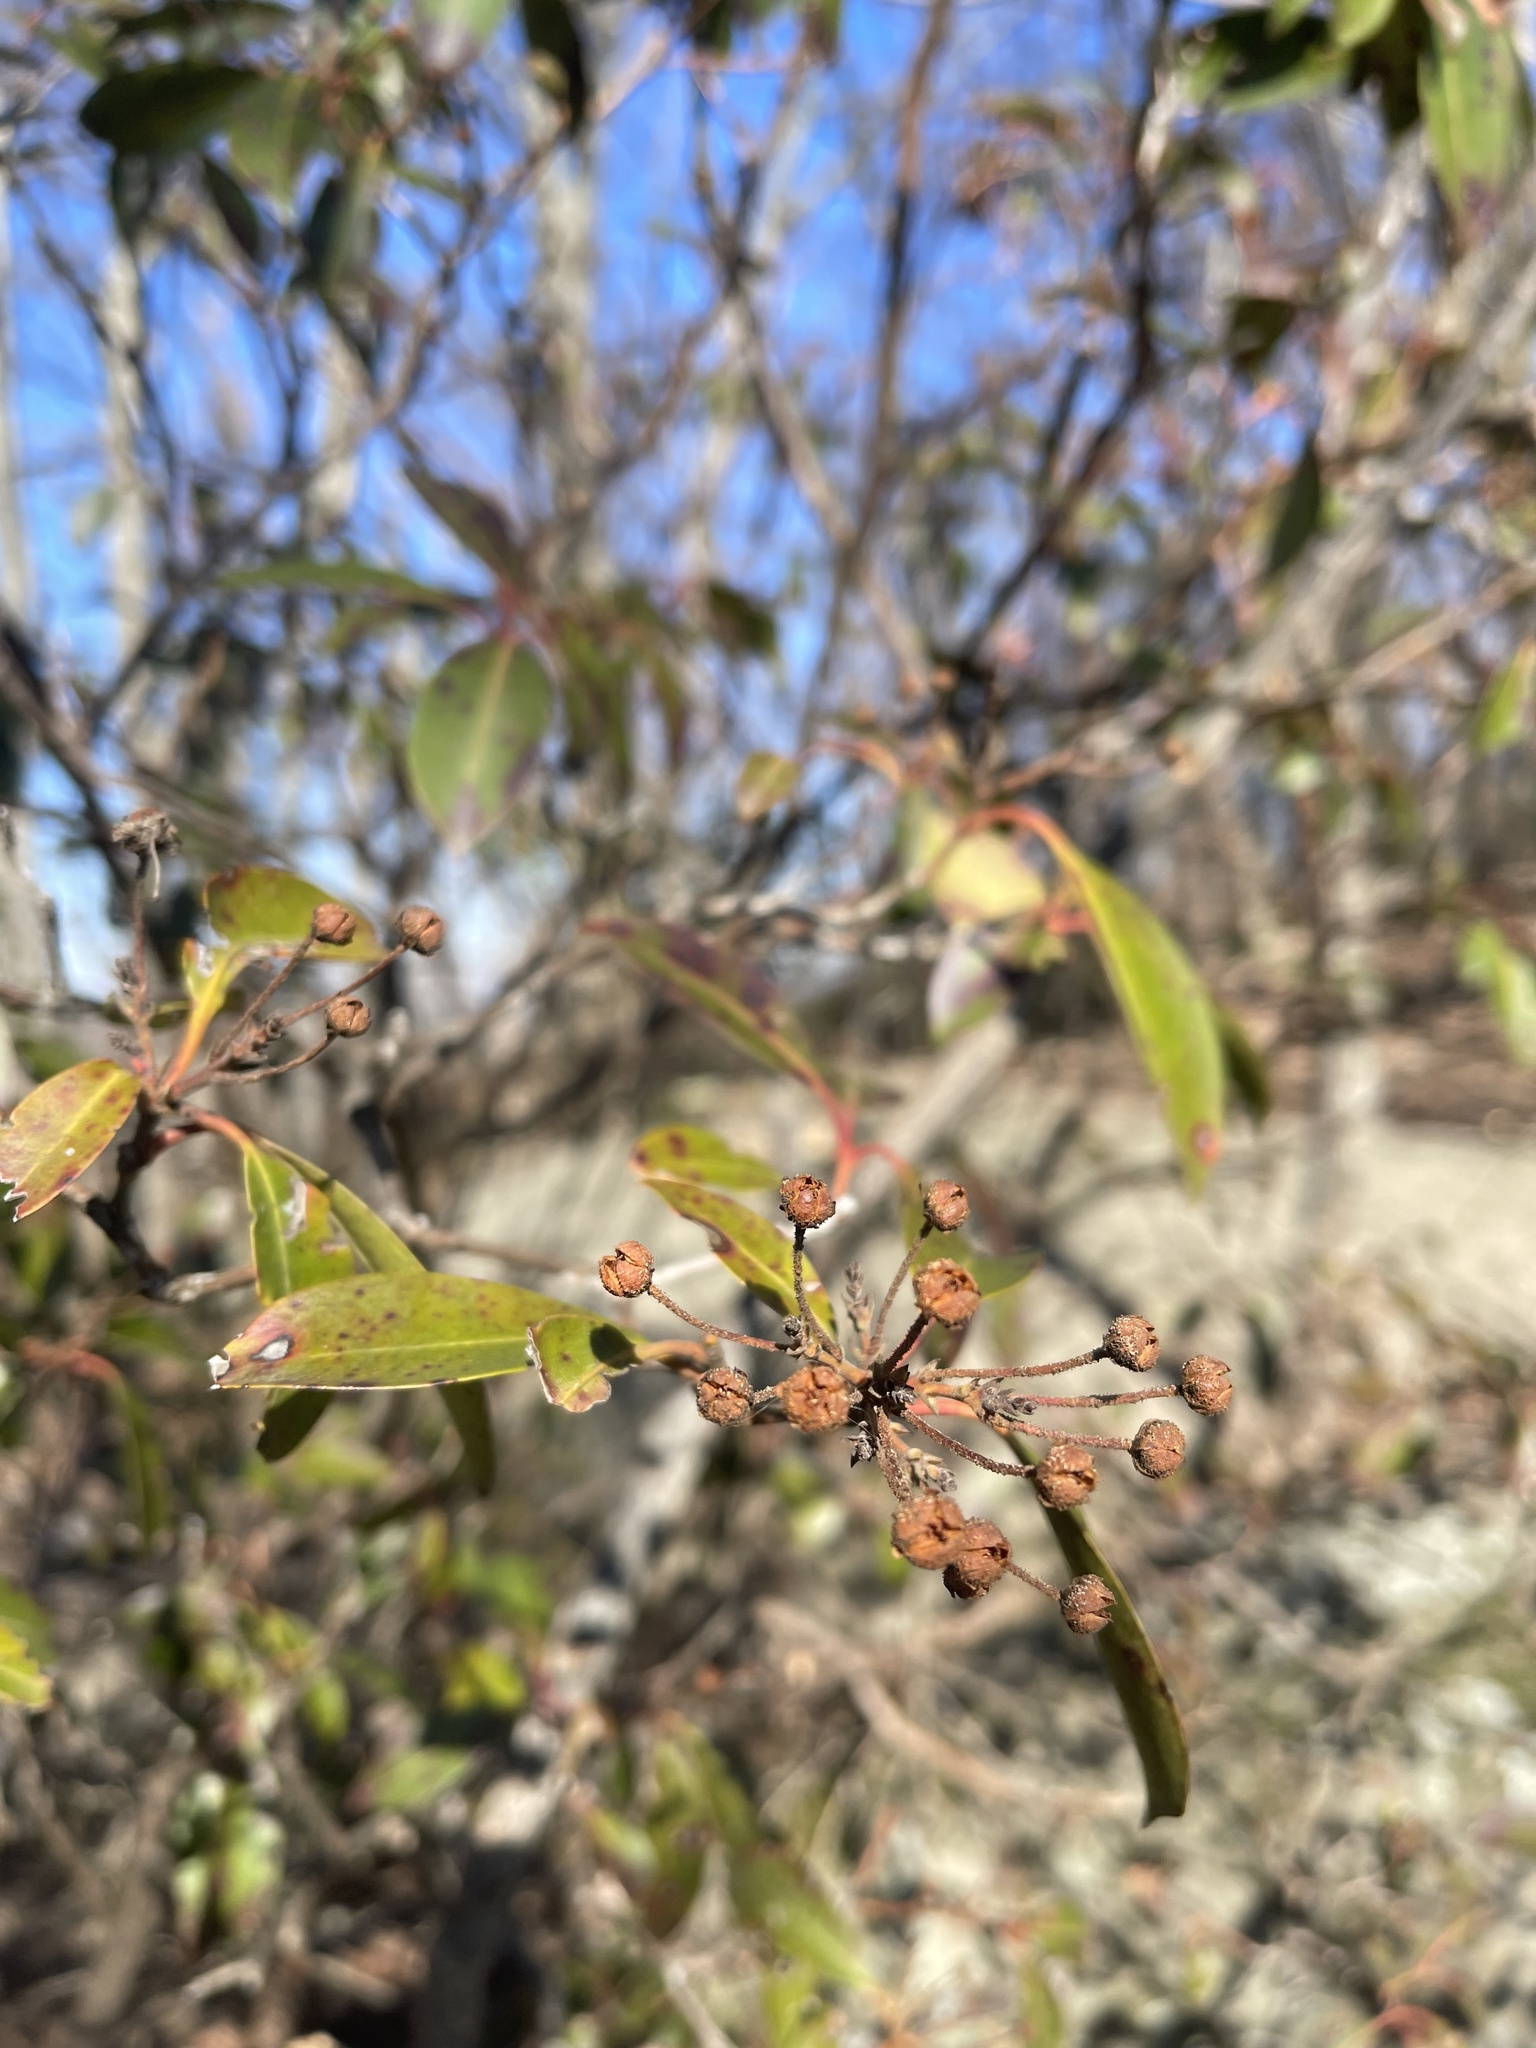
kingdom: Plantae
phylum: Tracheophyta
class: Magnoliopsida
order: Ericales
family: Ericaceae
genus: Kalmia
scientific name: Kalmia latifolia
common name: Mountain-laurel
